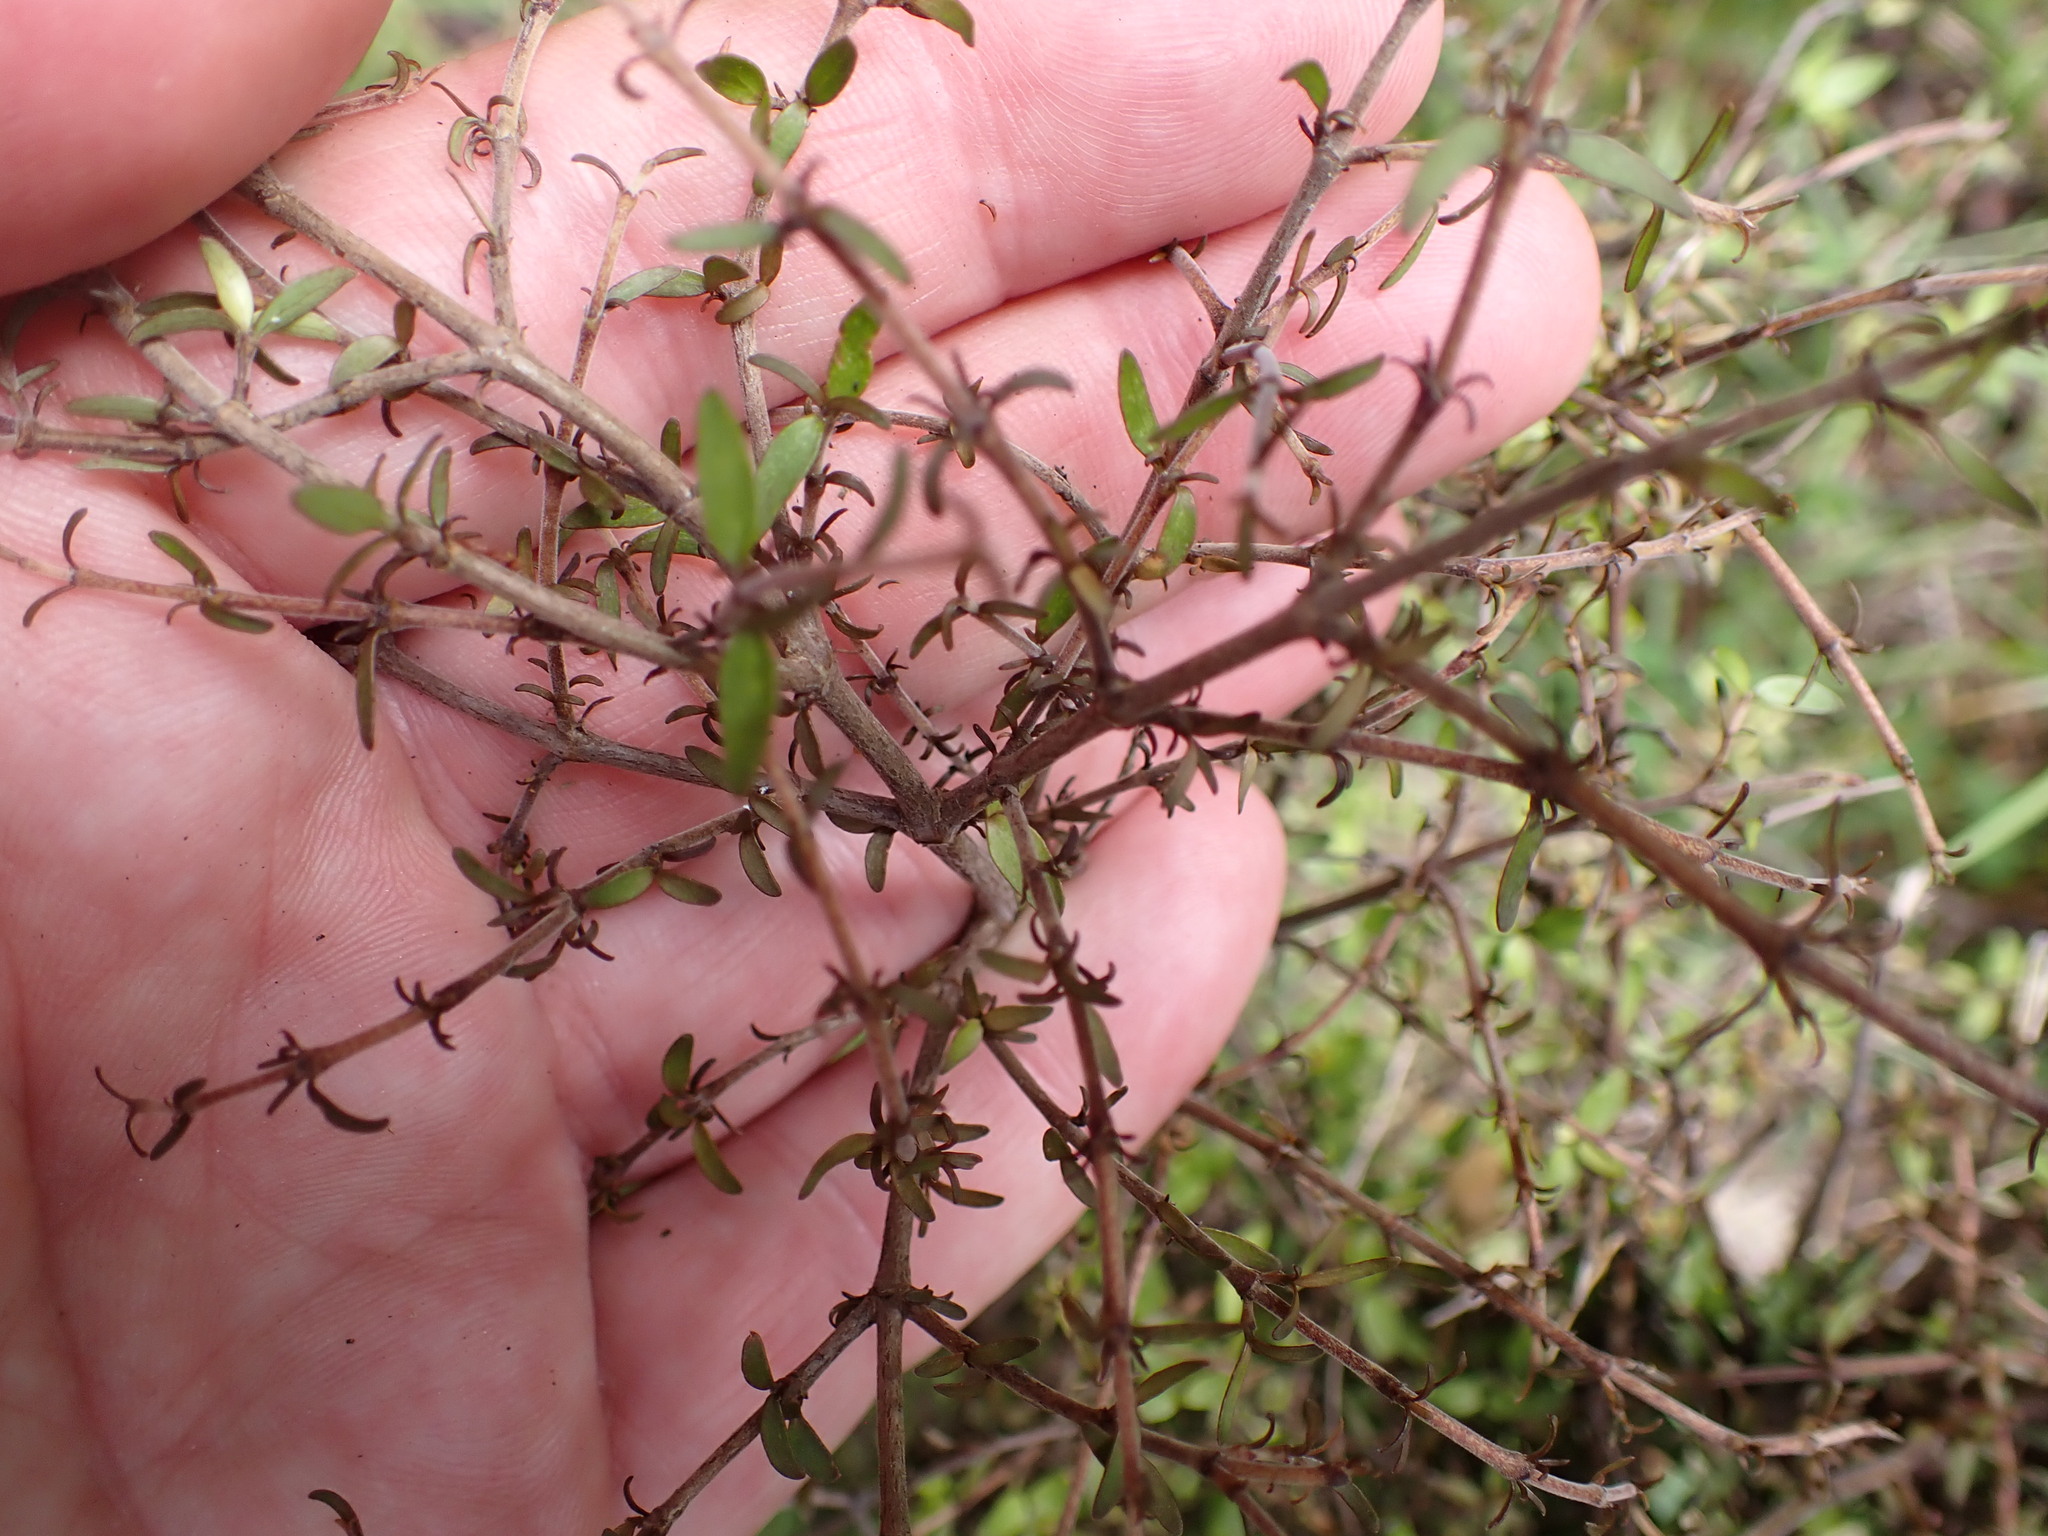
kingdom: Plantae
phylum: Tracheophyta
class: Magnoliopsida
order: Gentianales
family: Rubiaceae
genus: Coprosma
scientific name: Coprosma rhamnoides
